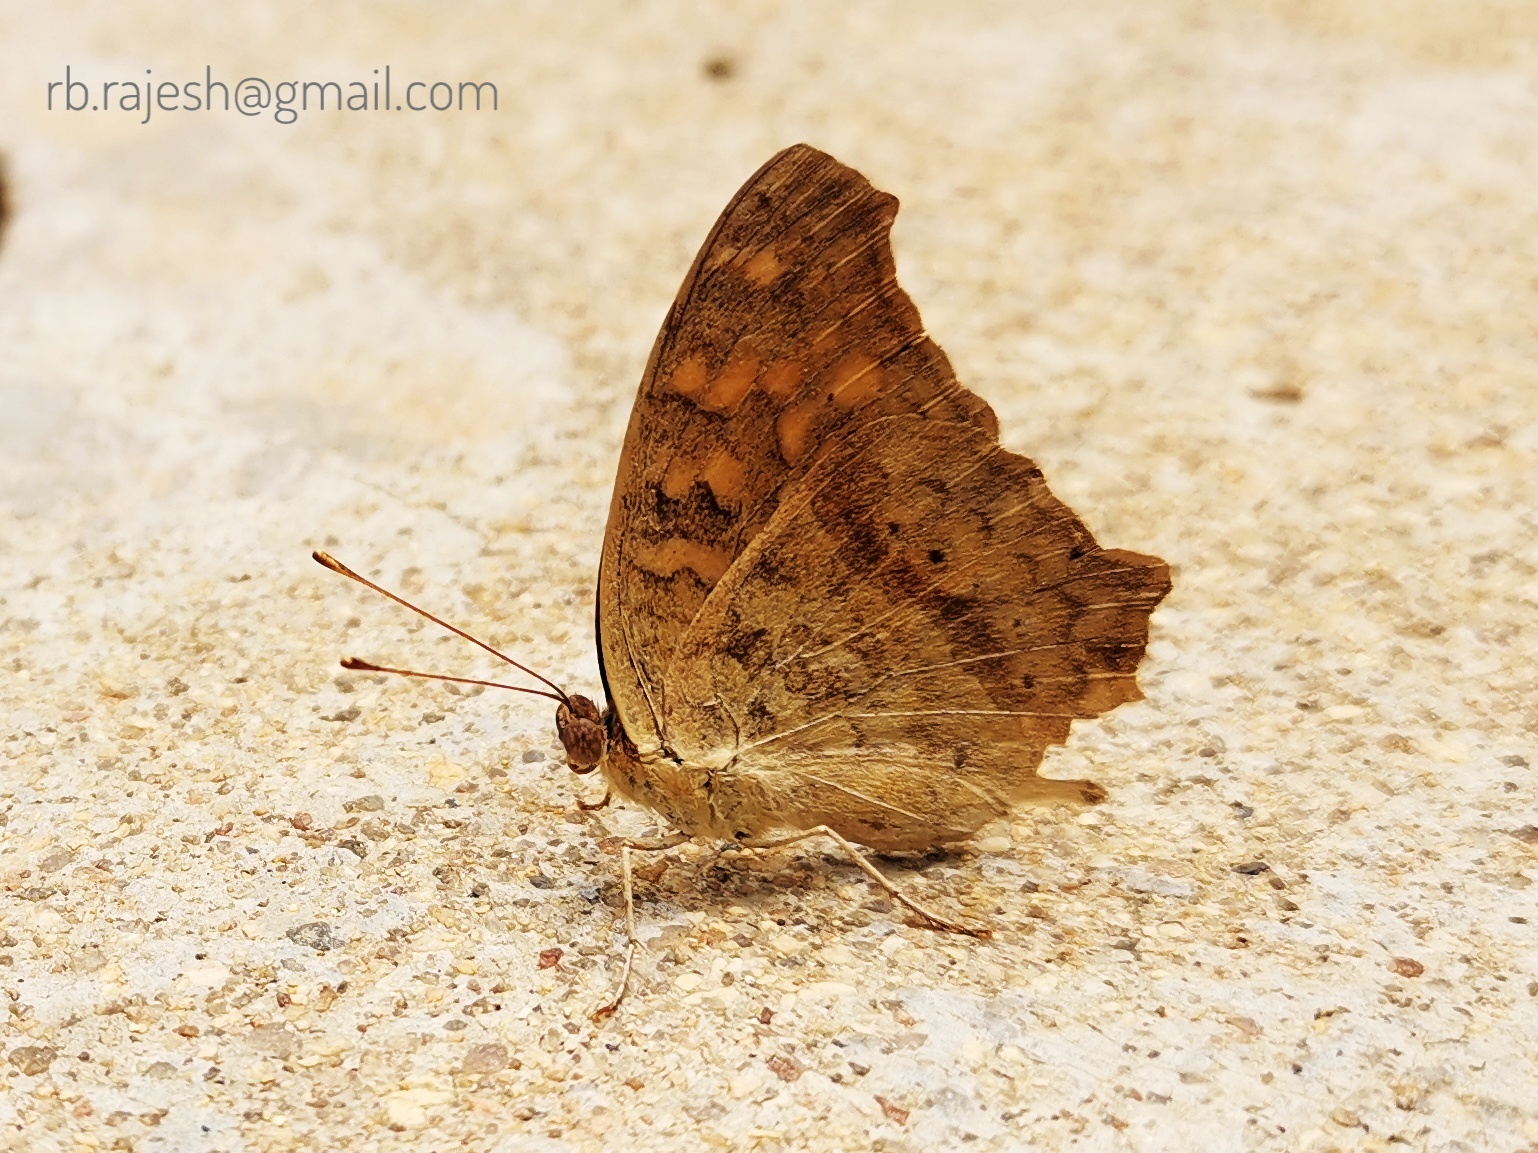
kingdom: Animalia
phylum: Arthropoda
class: Insecta
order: Lepidoptera
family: Nymphalidae
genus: Junonia
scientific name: Junonia lemonias
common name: Lemon pansy
